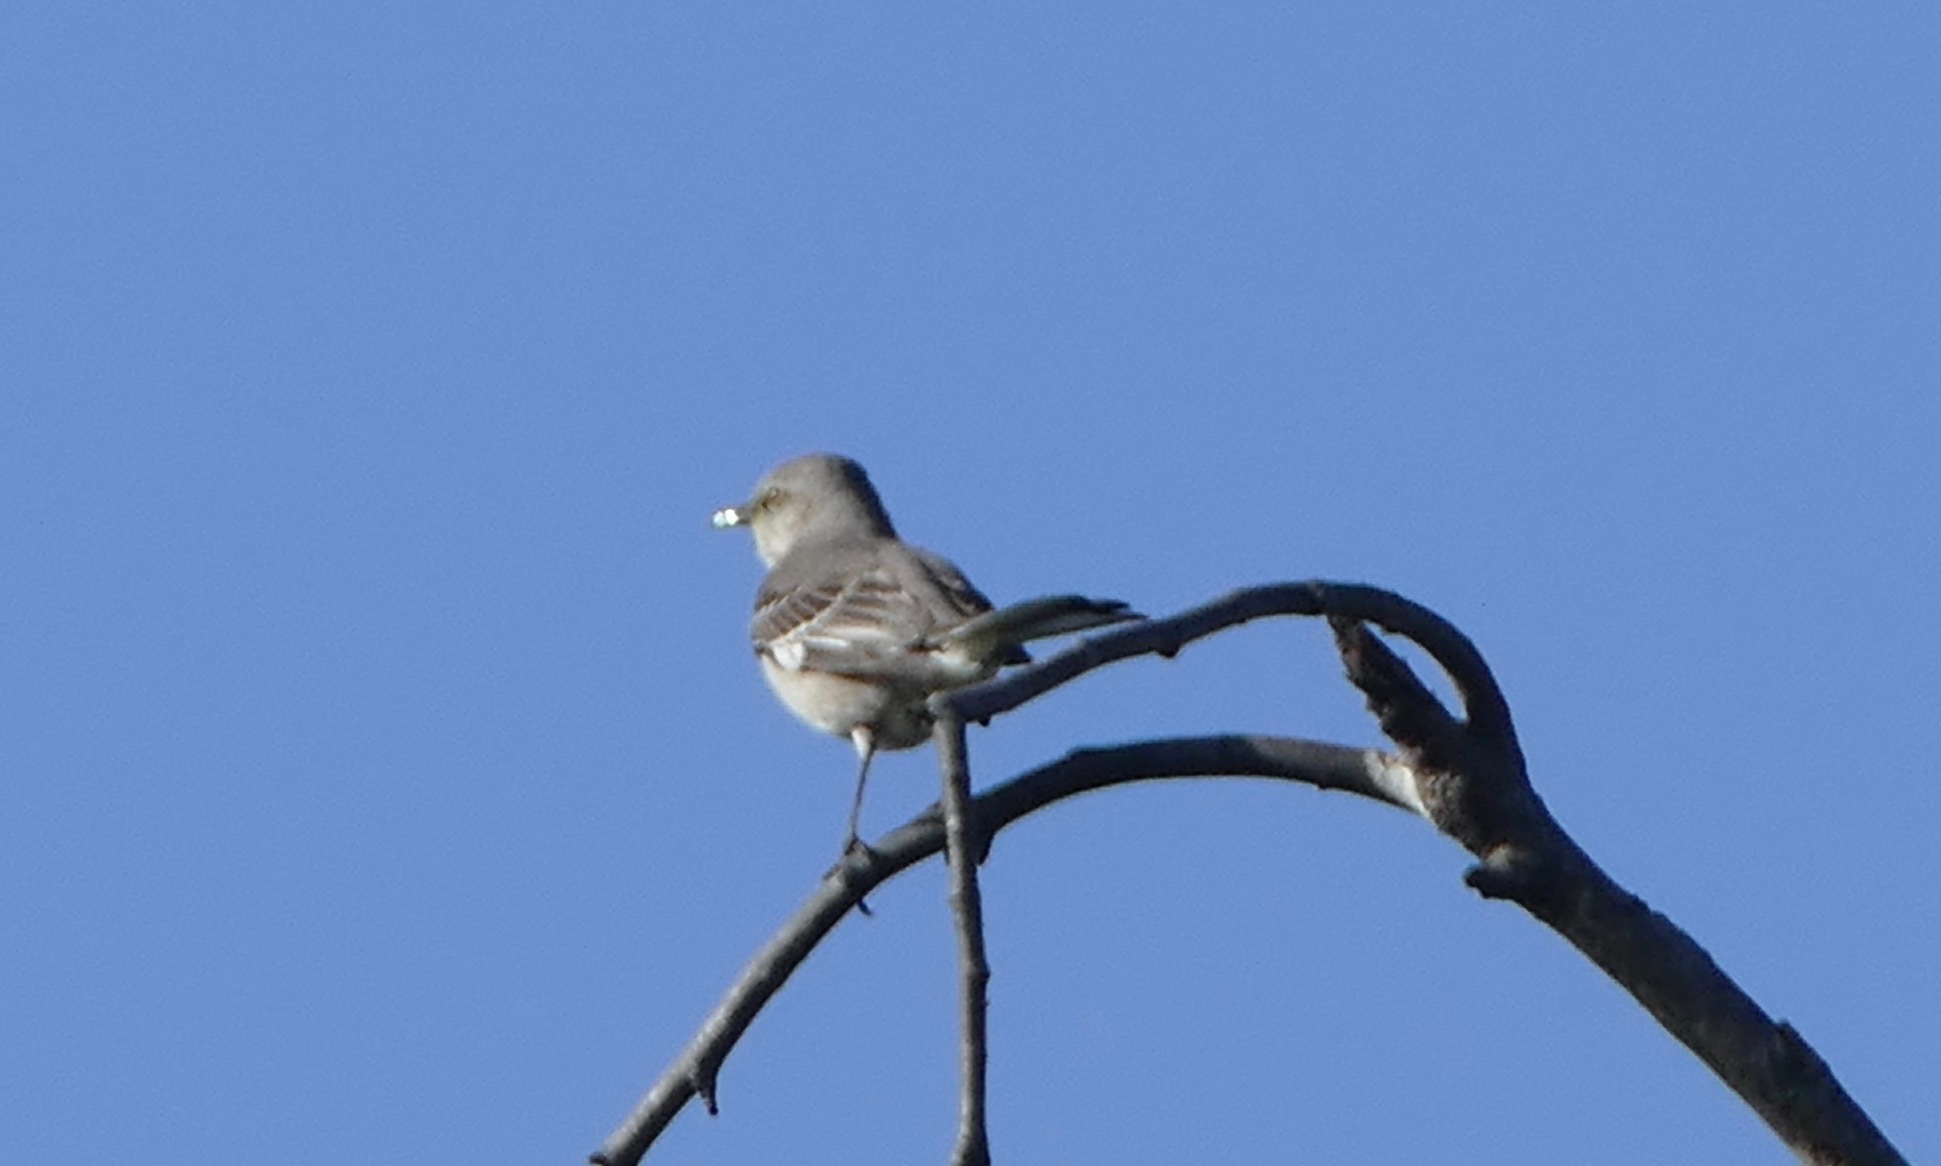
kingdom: Animalia
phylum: Chordata
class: Aves
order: Passeriformes
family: Mimidae
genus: Mimus
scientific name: Mimus polyglottos
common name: Northern mockingbird
